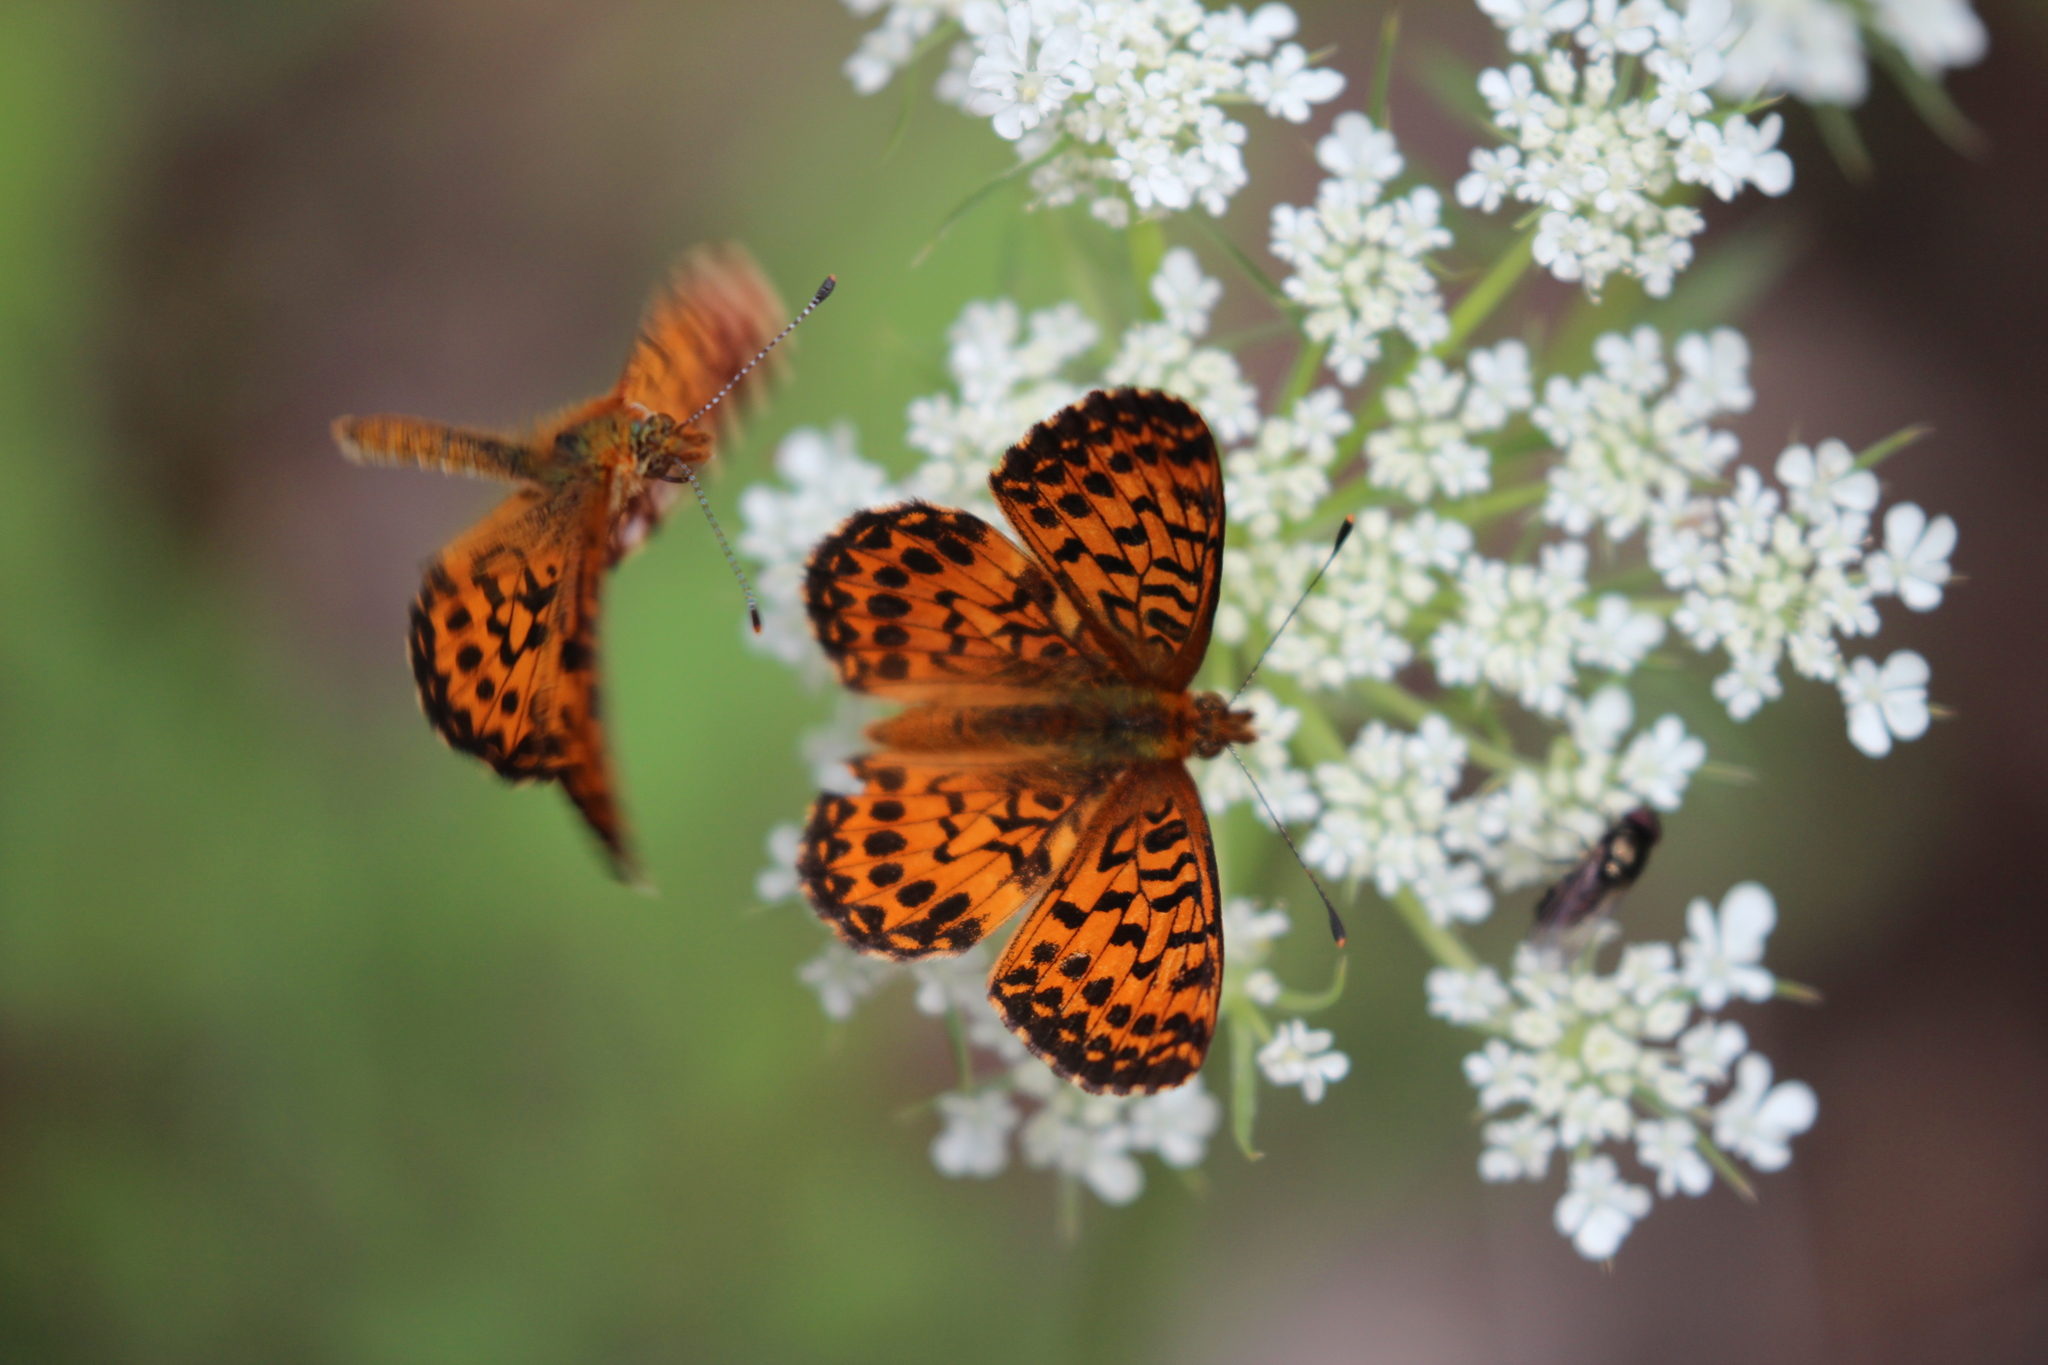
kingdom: Animalia
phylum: Arthropoda
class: Insecta
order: Lepidoptera
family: Nymphalidae
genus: Boloria
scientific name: Boloria chariclea
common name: Arctic fritillary
